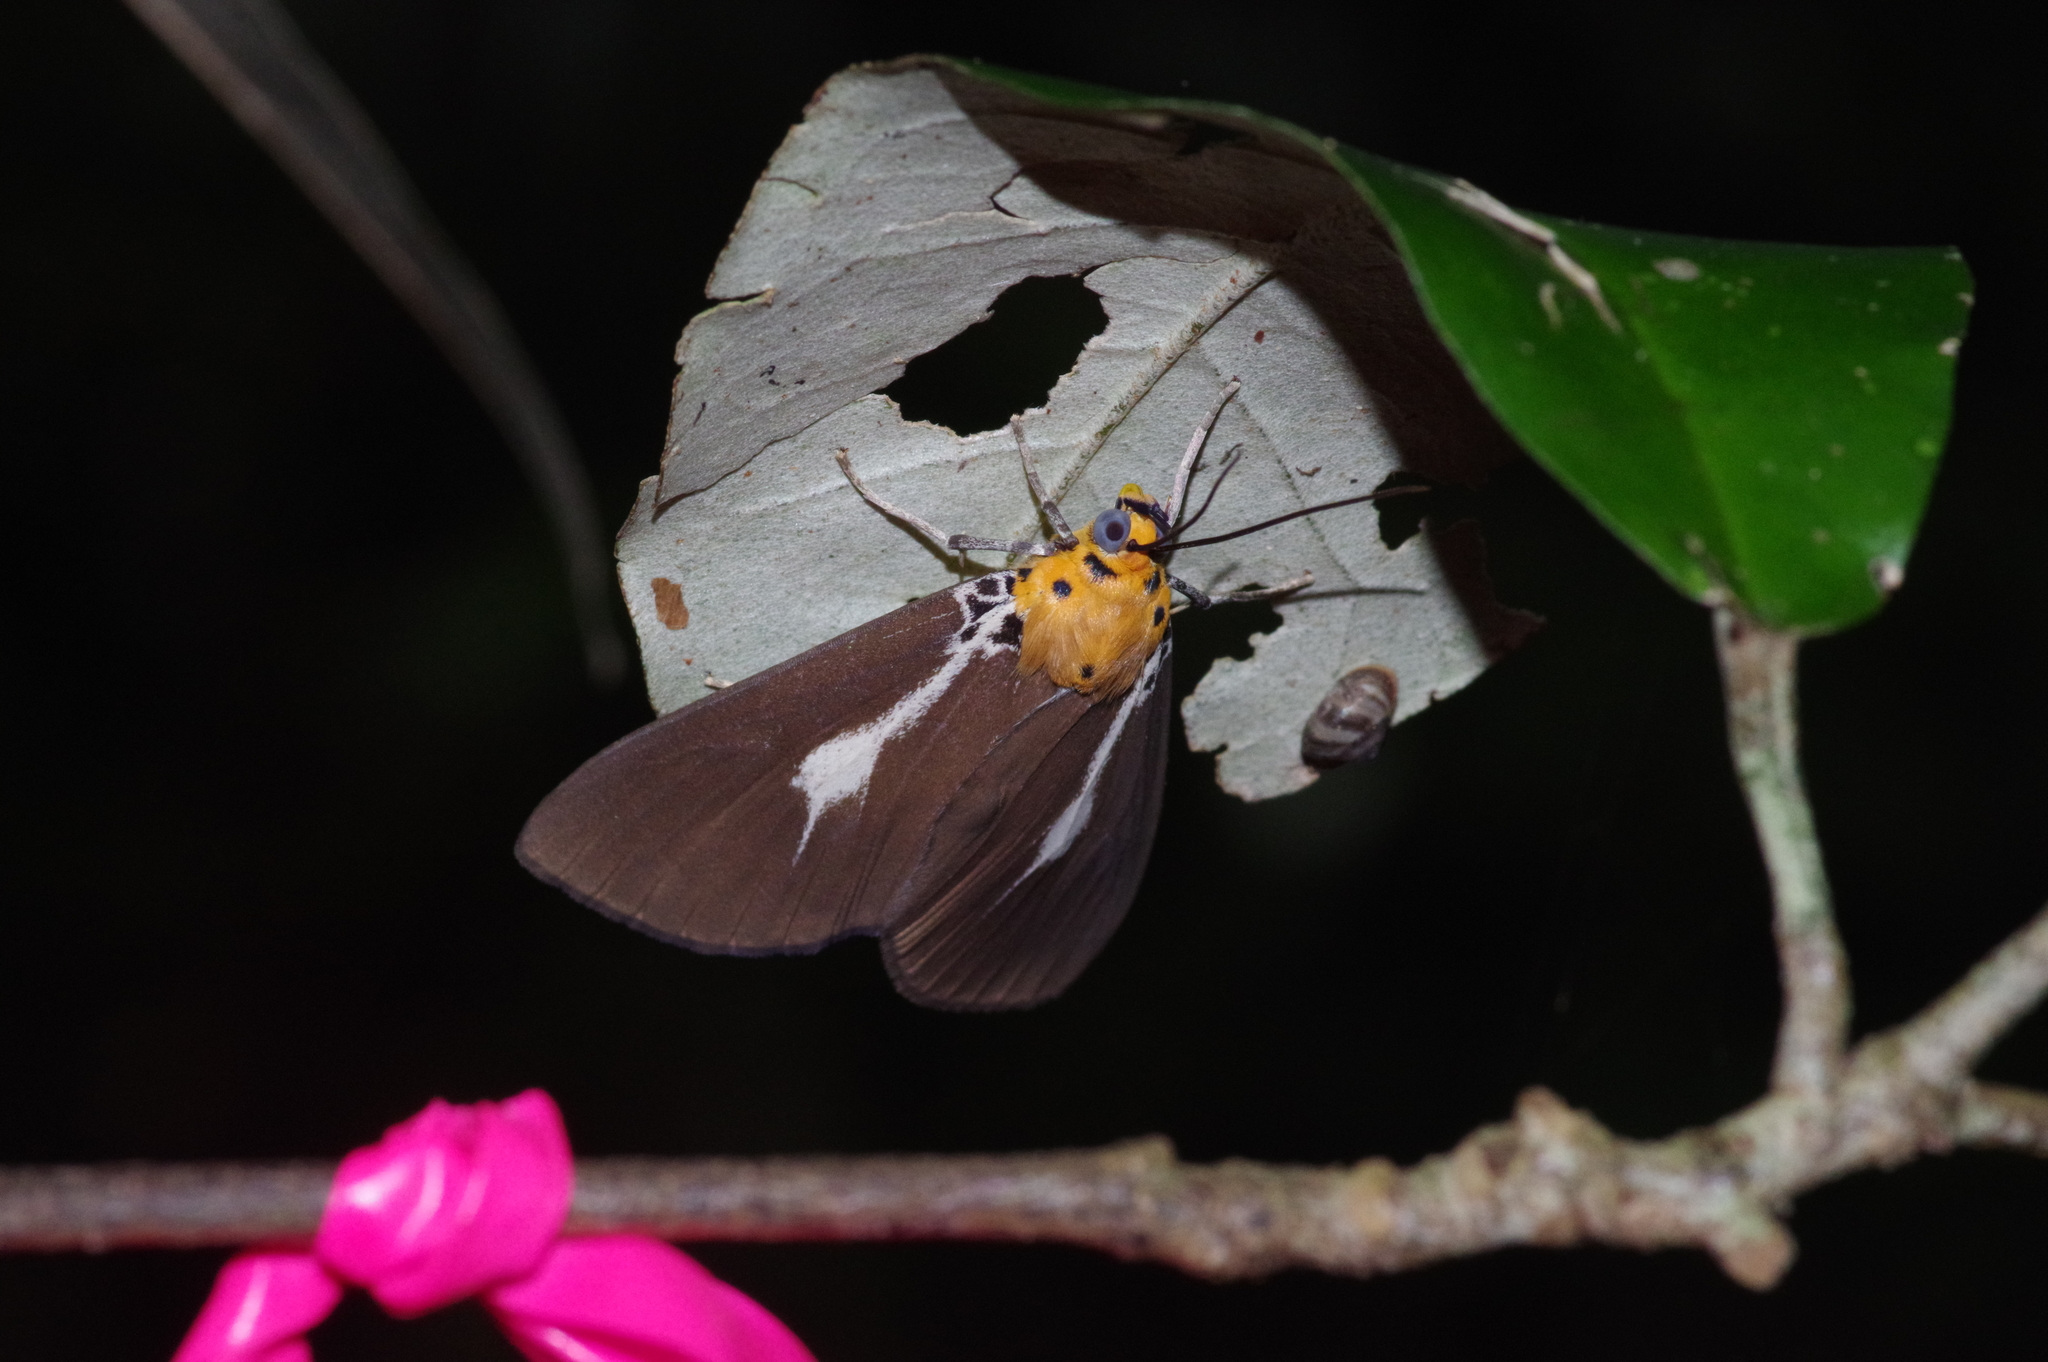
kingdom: Animalia
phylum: Arthropoda
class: Insecta
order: Lepidoptera
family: Erebidae
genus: Asota
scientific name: Asota heliconia
